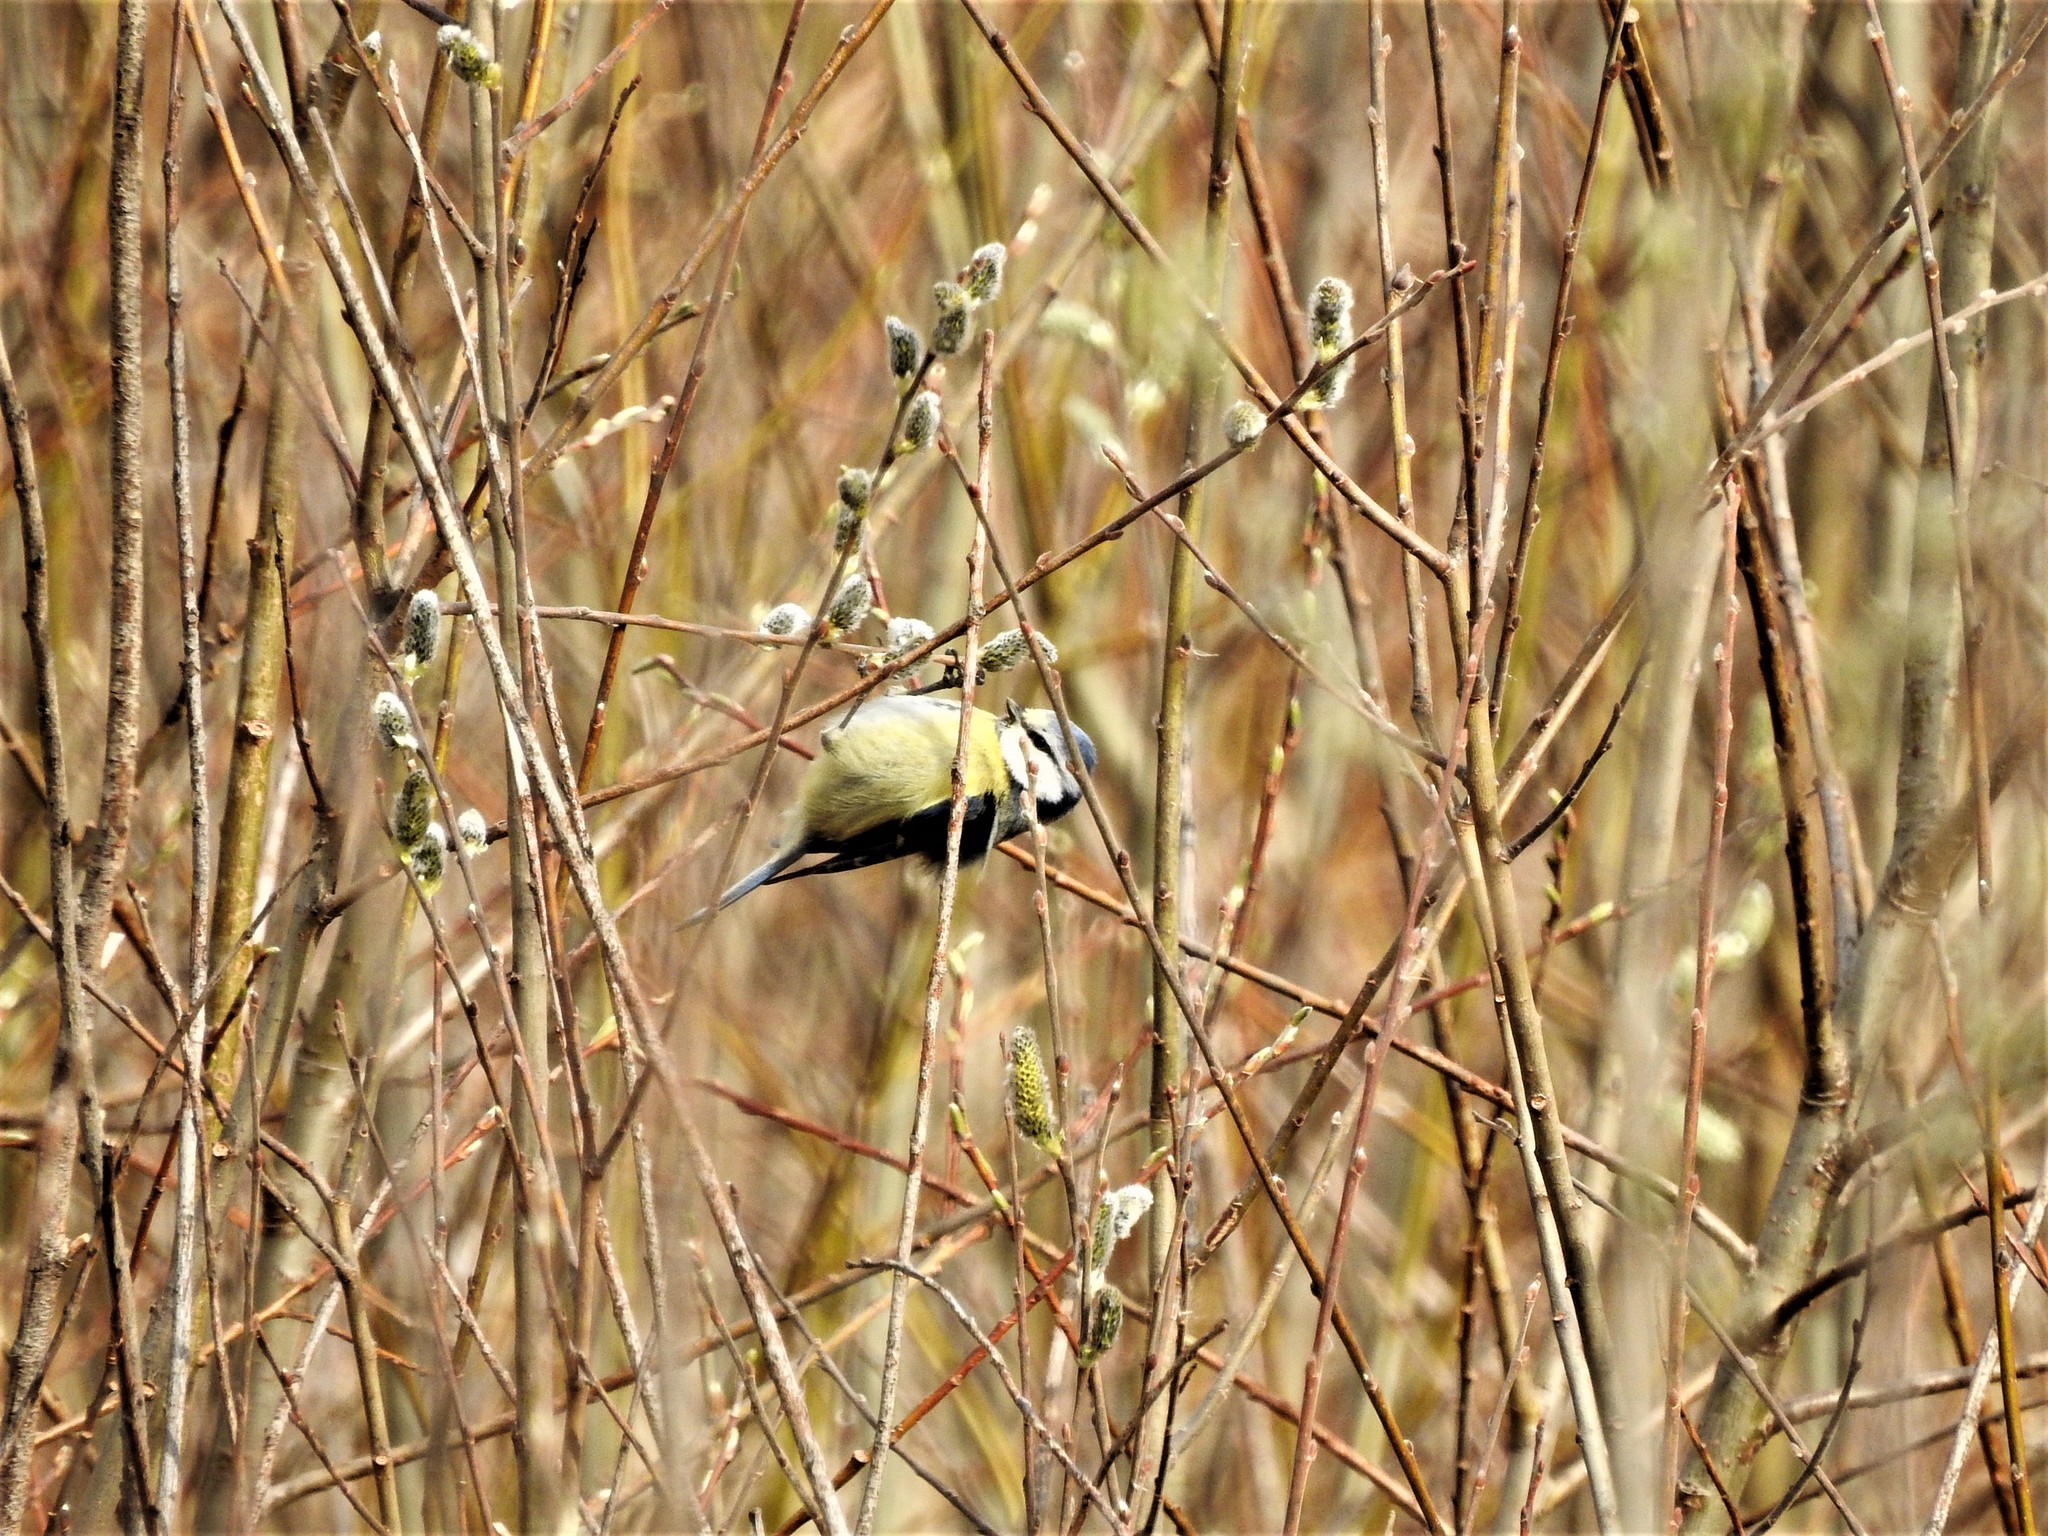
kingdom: Animalia
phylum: Chordata
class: Aves
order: Passeriformes
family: Paridae
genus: Cyanistes
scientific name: Cyanistes caeruleus
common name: Eurasian blue tit
